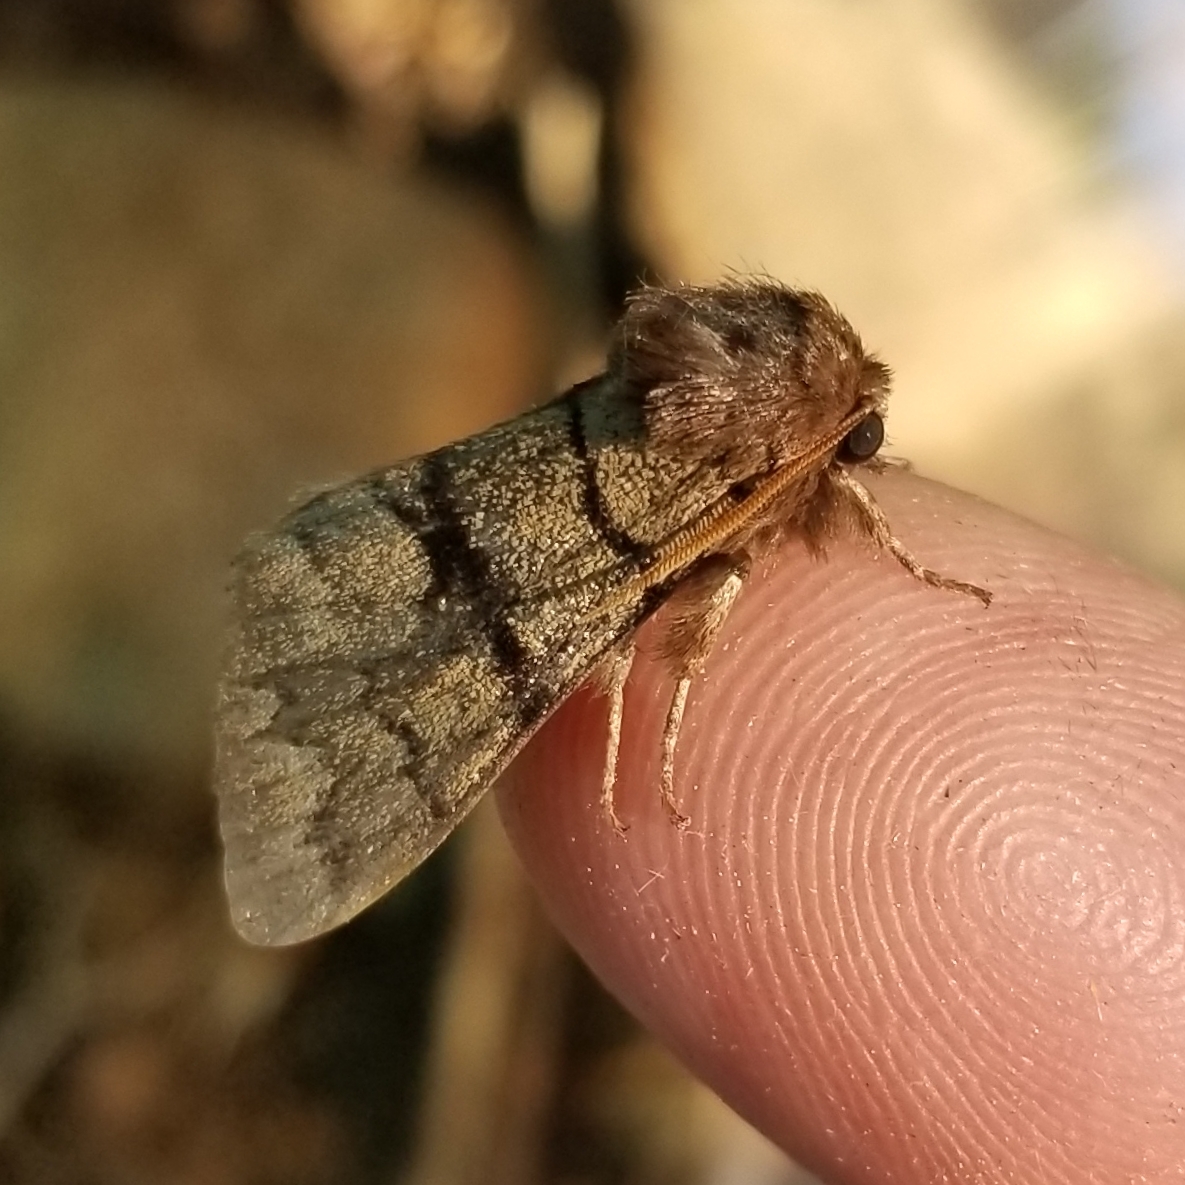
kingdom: Animalia
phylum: Arthropoda
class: Insecta
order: Lepidoptera
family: Noctuidae
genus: Panthea
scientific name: Panthea furcilla
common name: Eastern panthea moth
